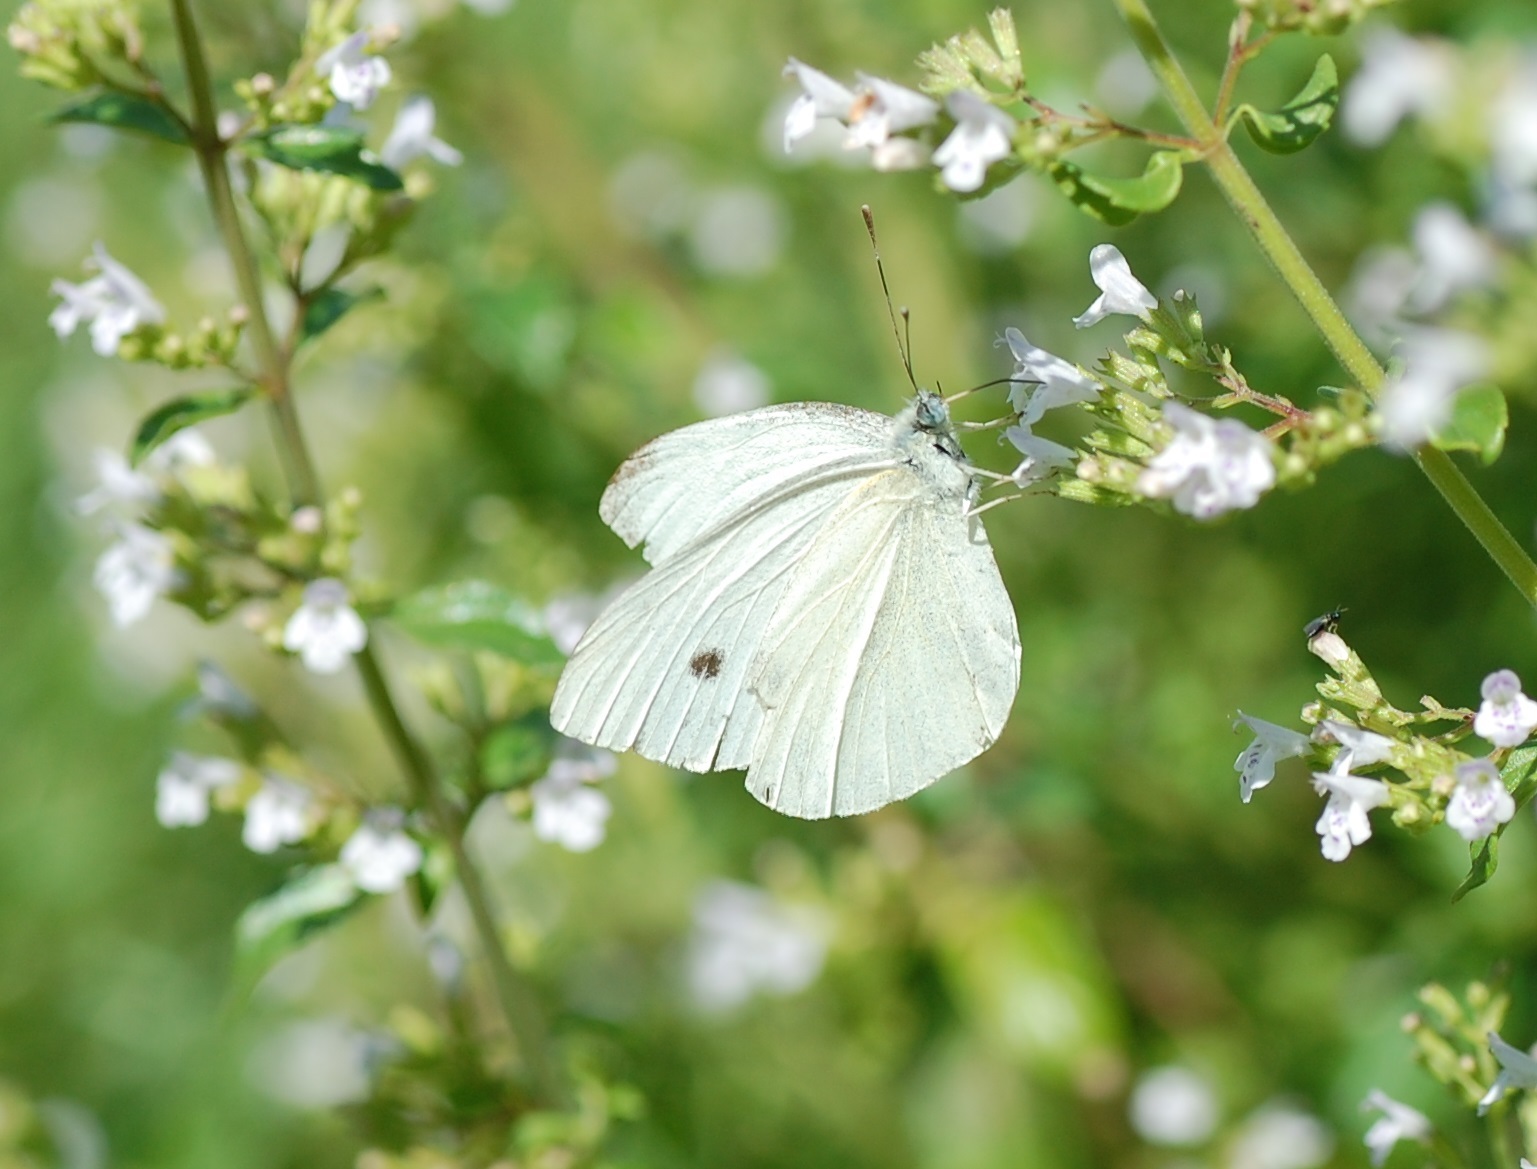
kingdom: Animalia
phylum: Arthropoda
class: Insecta
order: Lepidoptera
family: Pieridae
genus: Pieris
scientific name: Pieris rapae
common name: Small white
